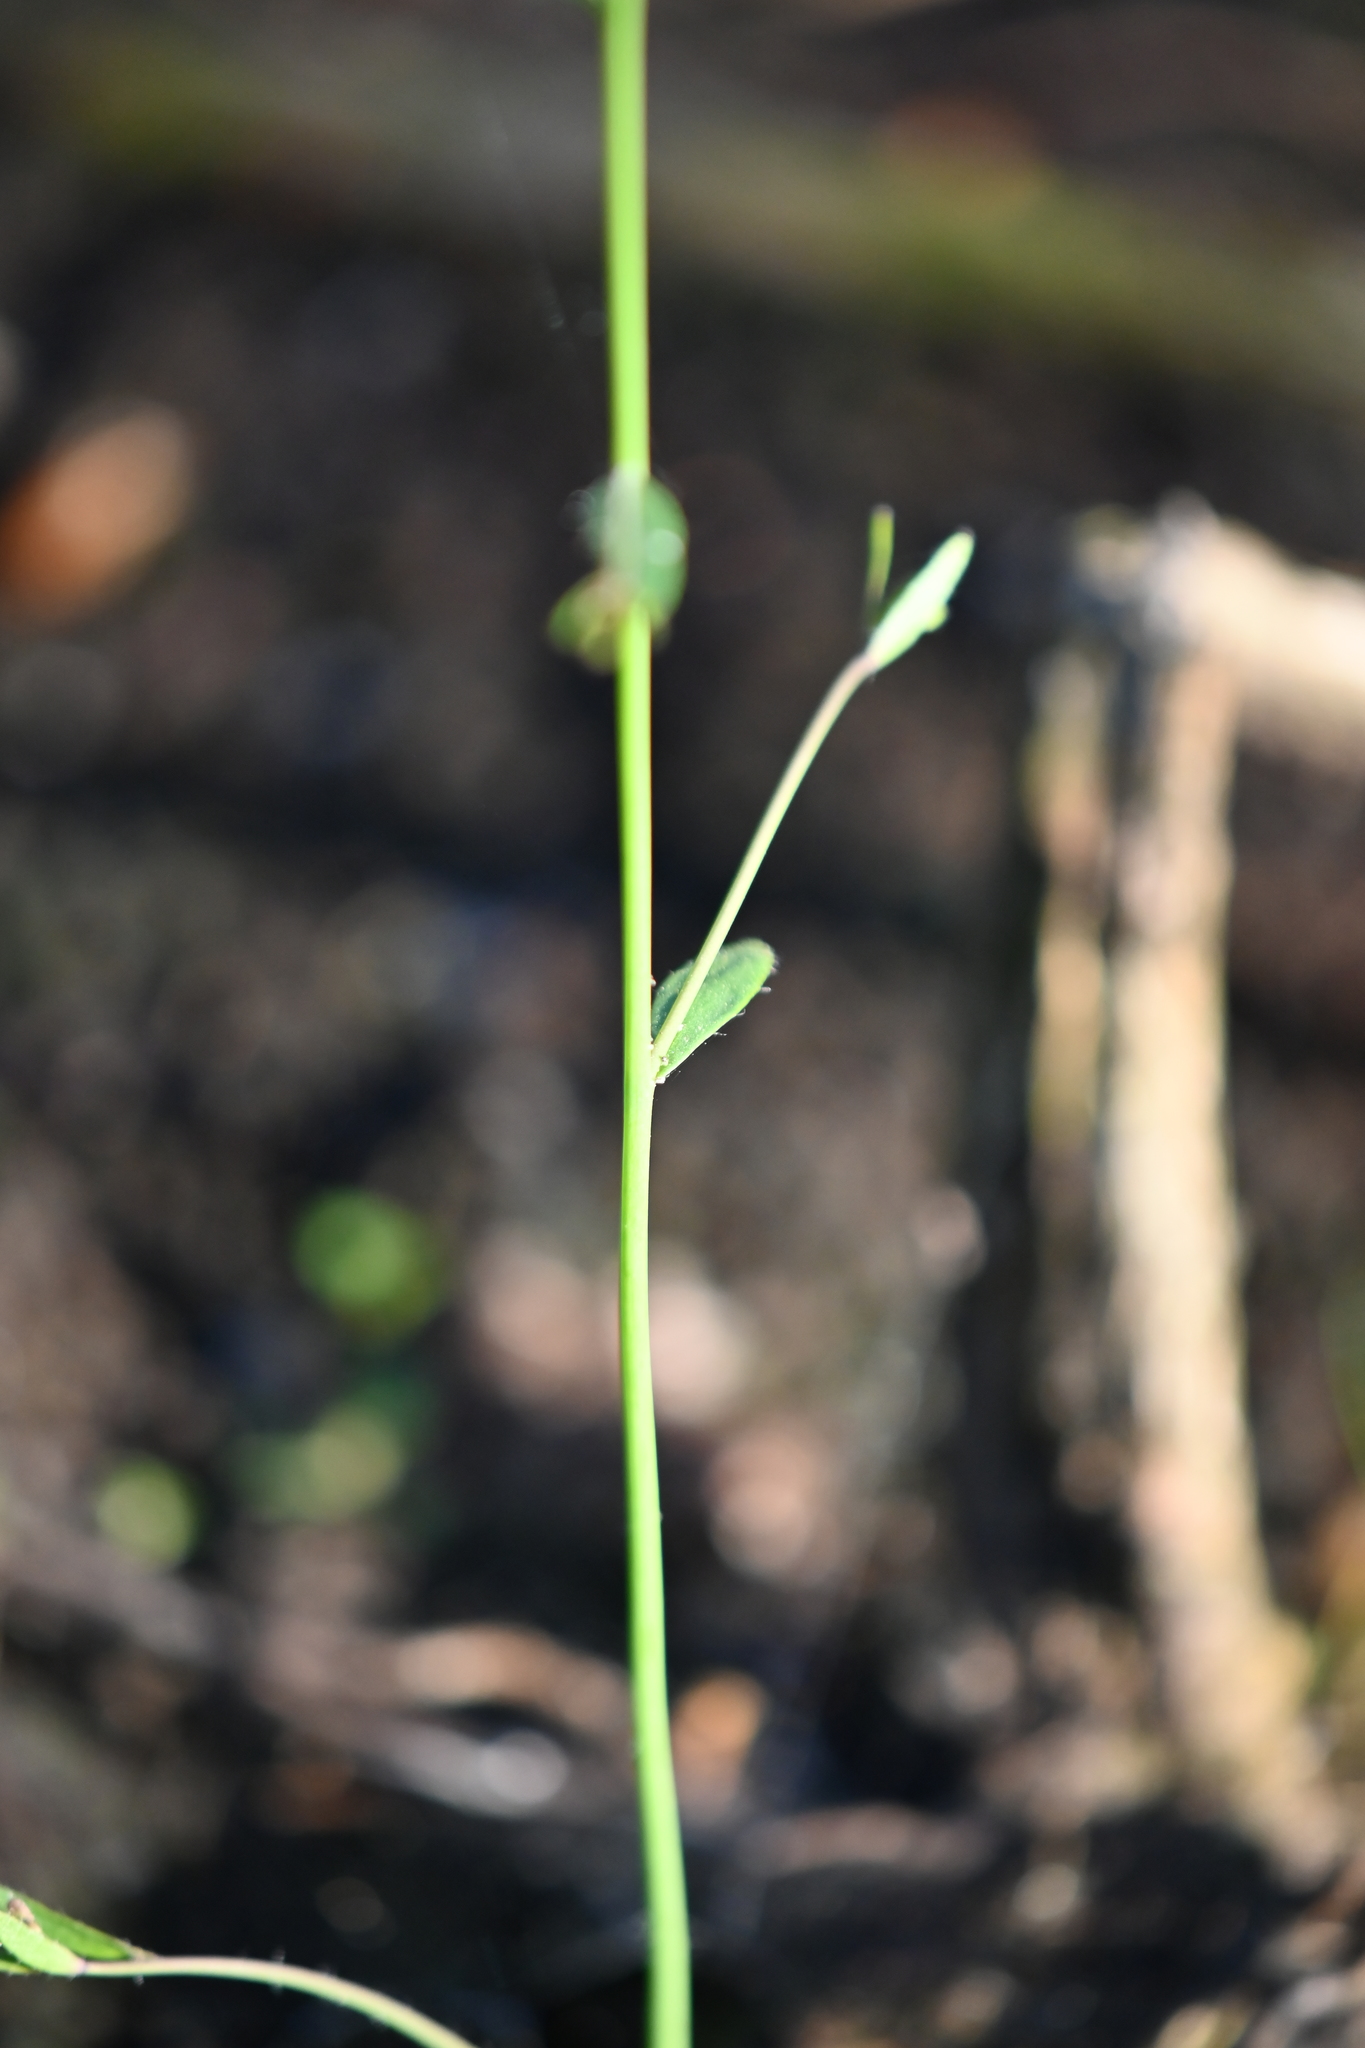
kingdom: Plantae
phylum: Tracheophyta
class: Magnoliopsida
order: Brassicales
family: Brassicaceae
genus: Arabidopsis
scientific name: Arabidopsis thaliana
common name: Thale cress
